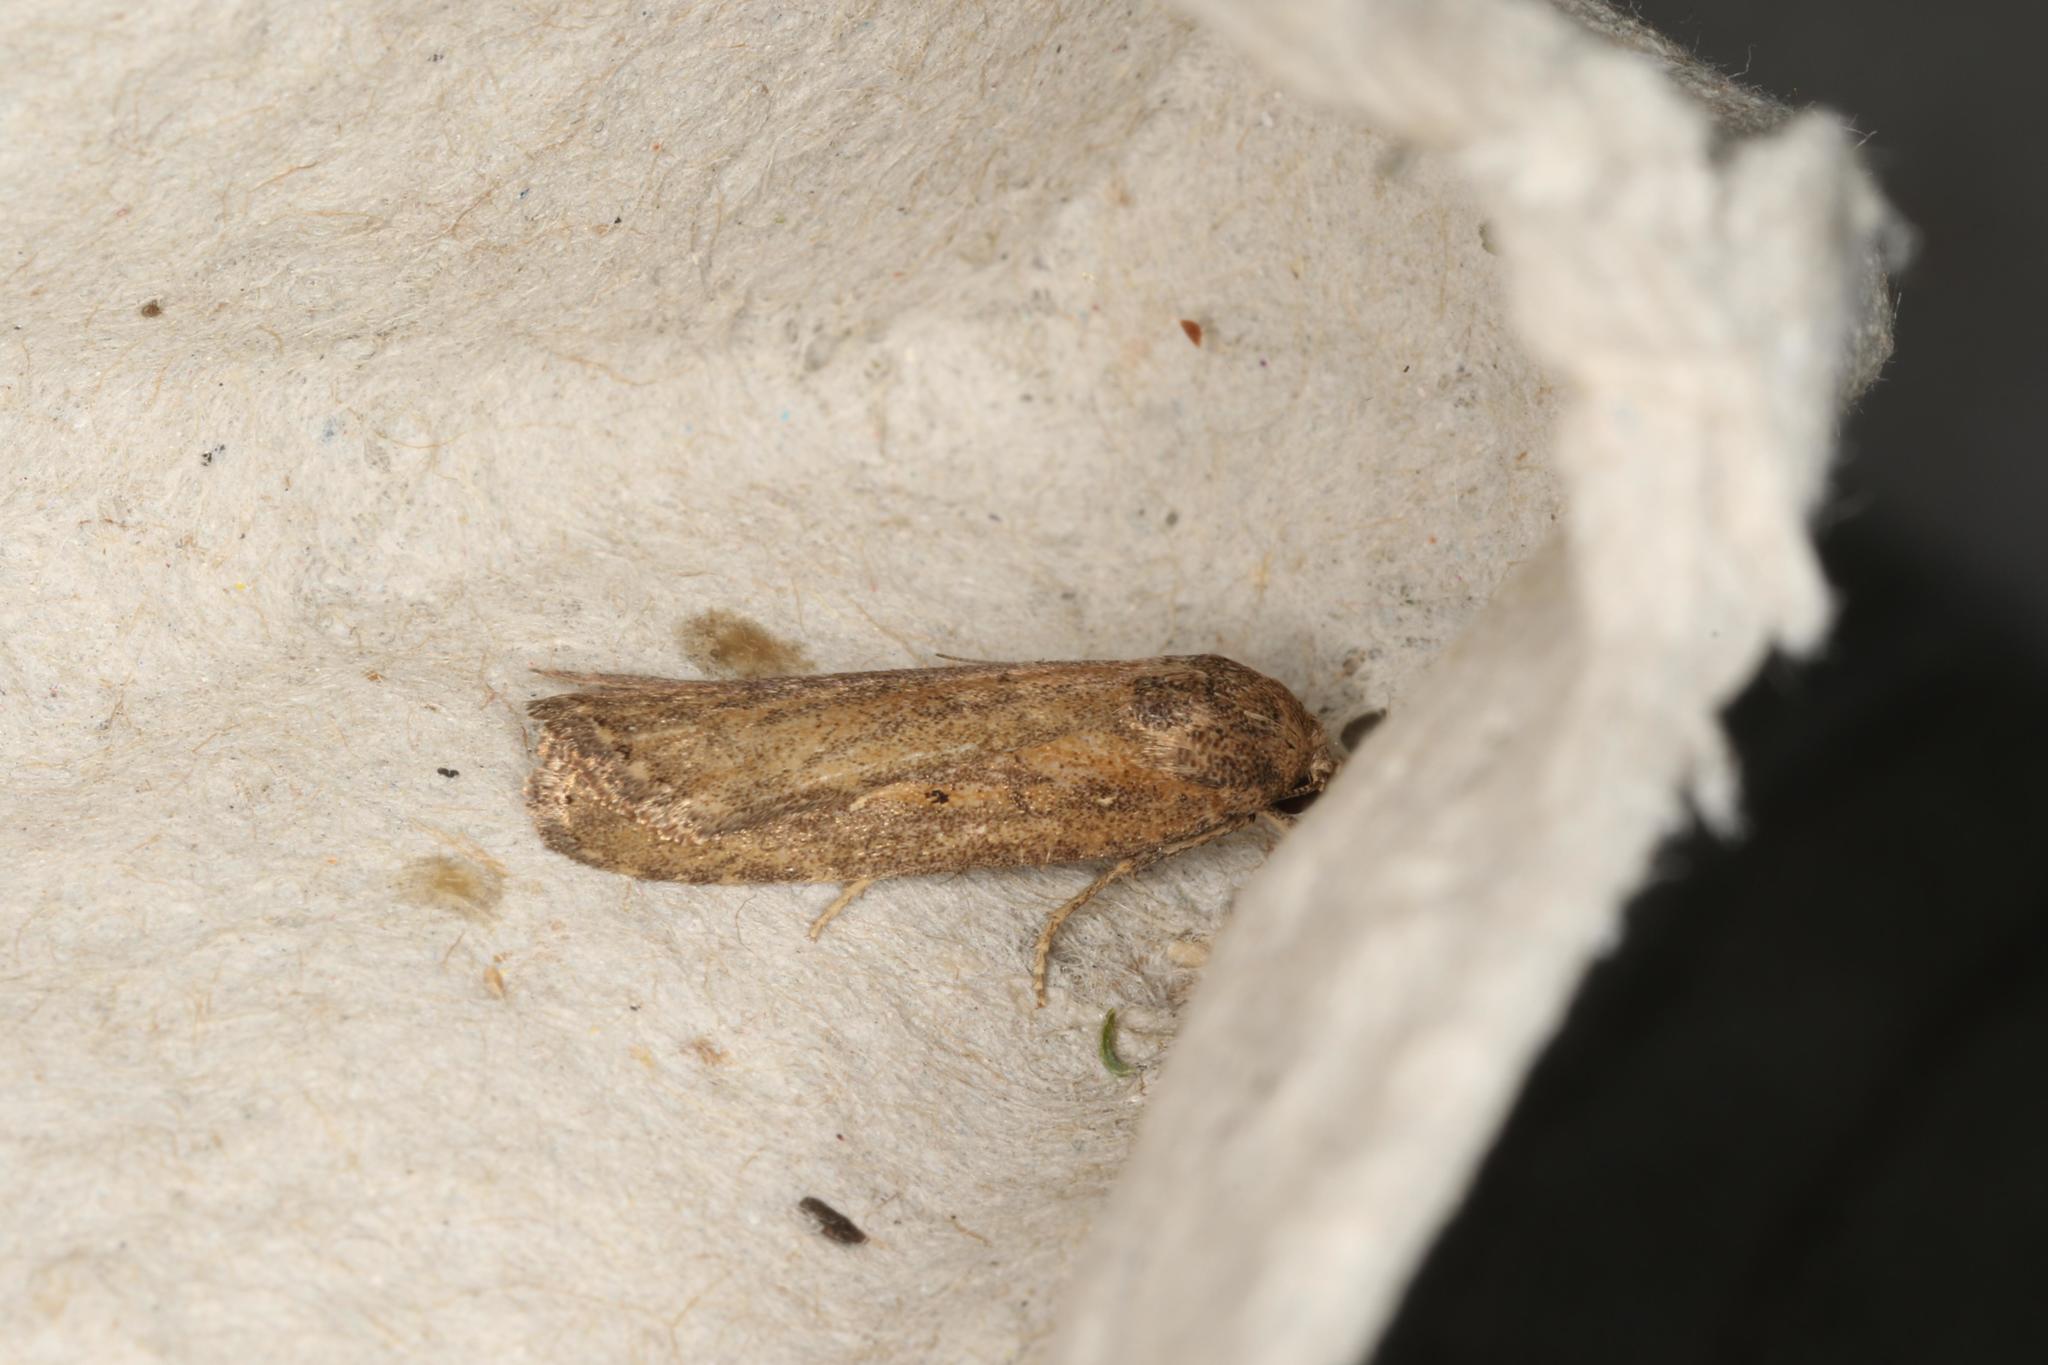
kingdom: Animalia
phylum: Arthropoda
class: Insecta
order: Lepidoptera
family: Noctuidae
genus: Athetis
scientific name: Athetis tenuis
